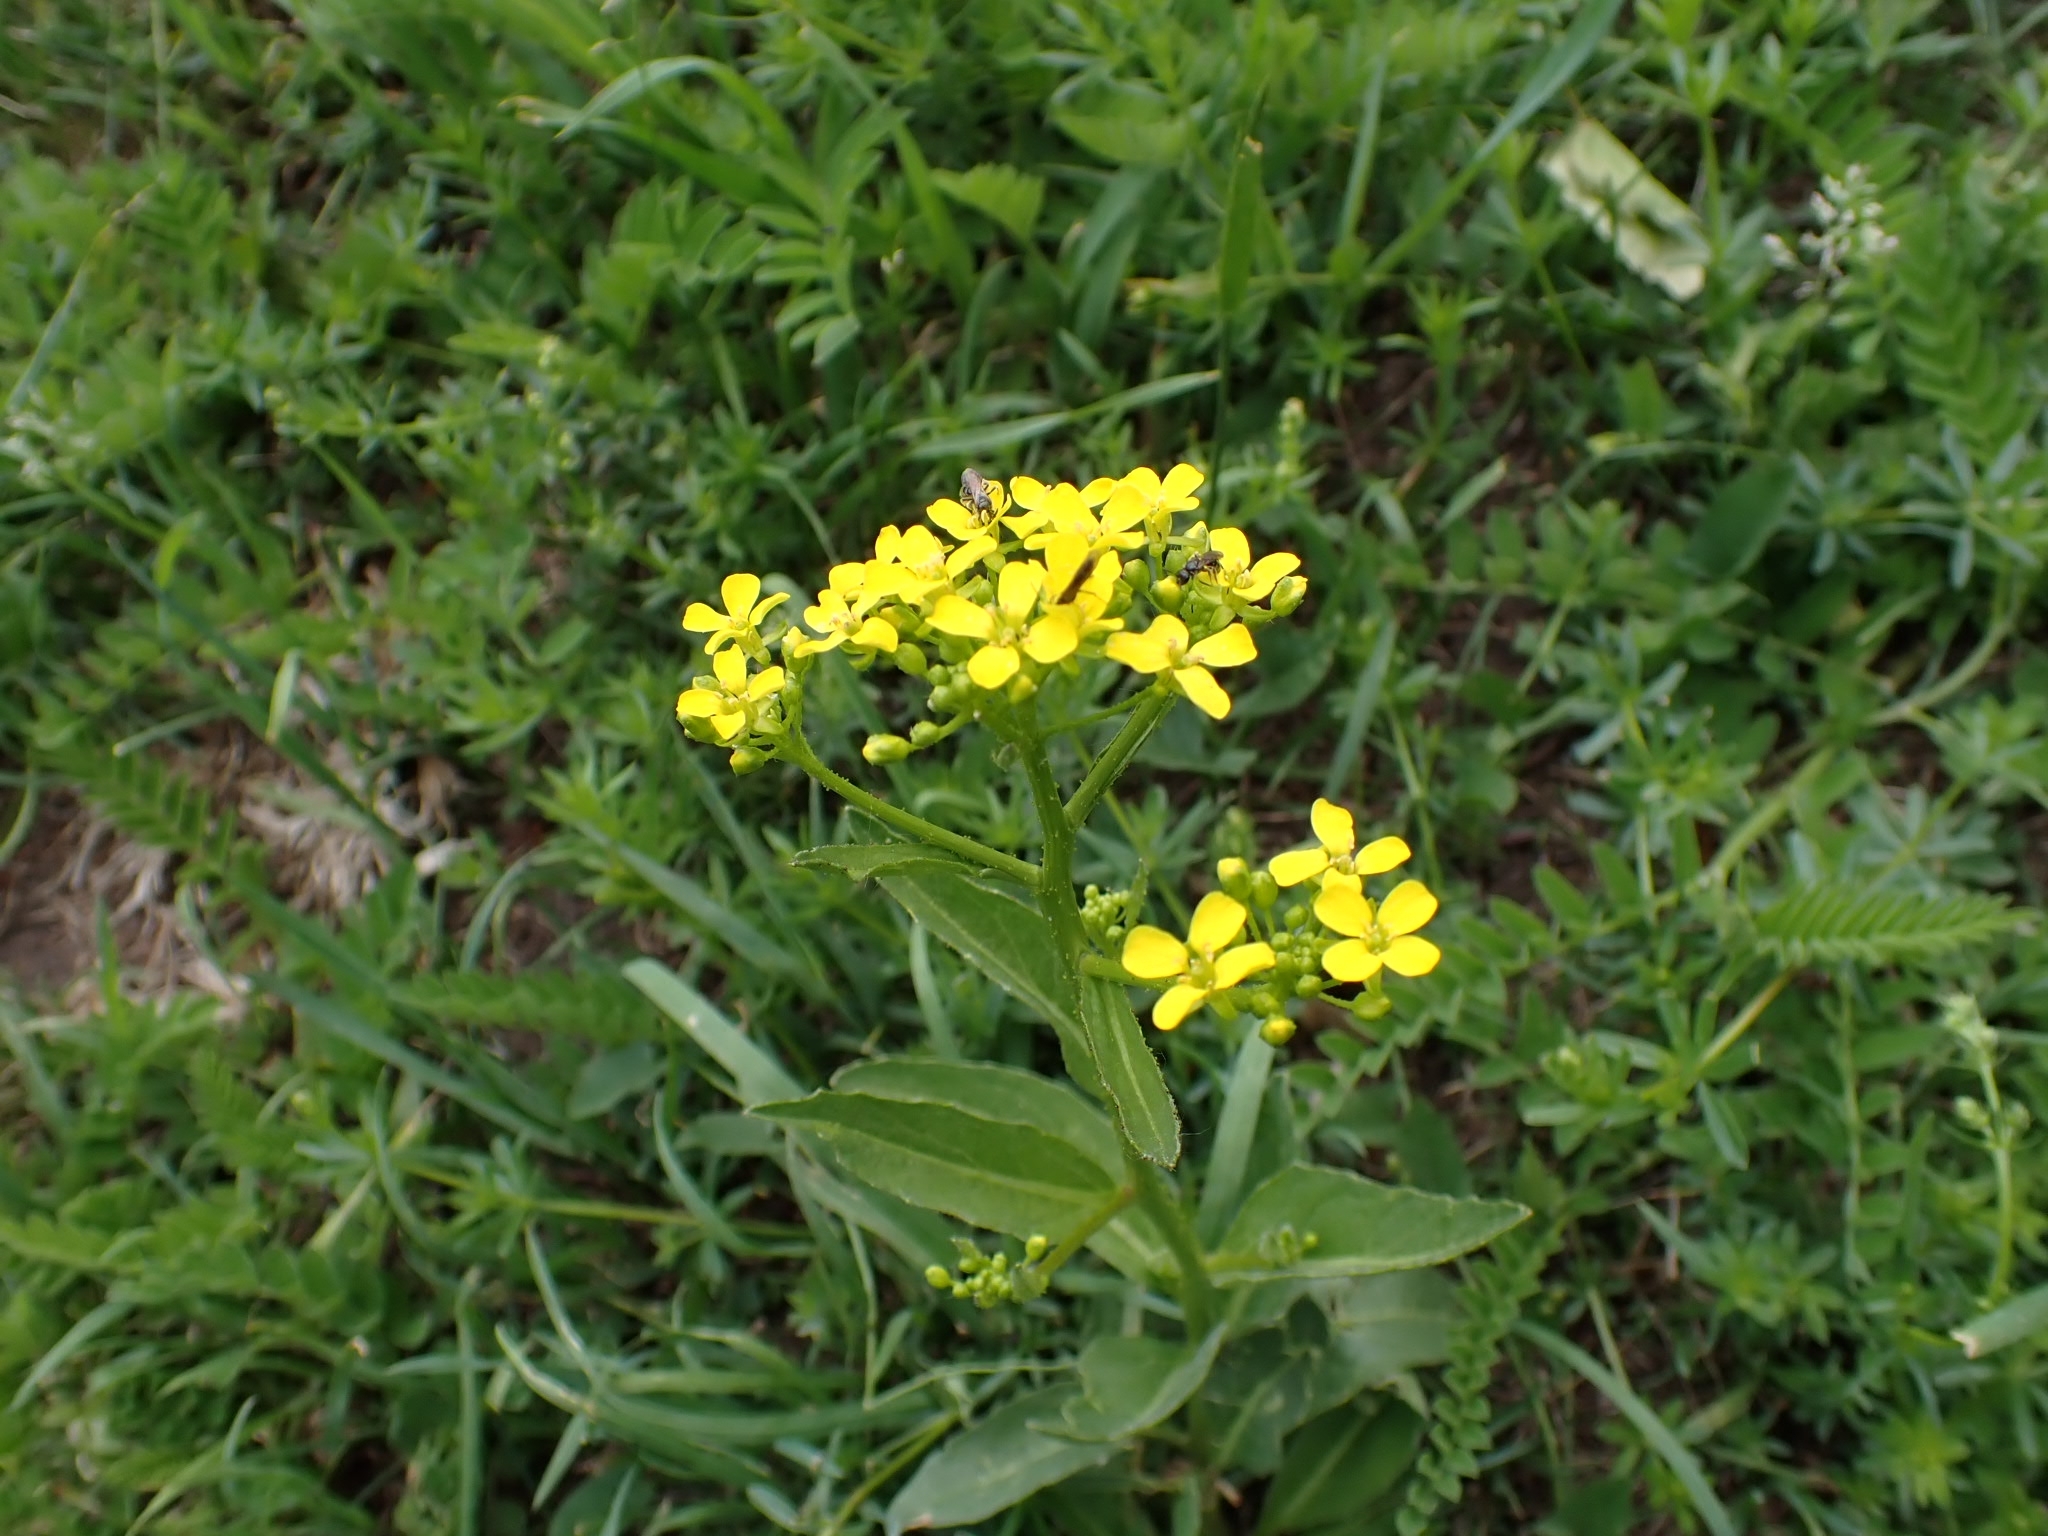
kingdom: Plantae
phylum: Tracheophyta
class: Magnoliopsida
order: Brassicales
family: Brassicaceae
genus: Bunias
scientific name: Bunias orientalis
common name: Warty-cabbage
